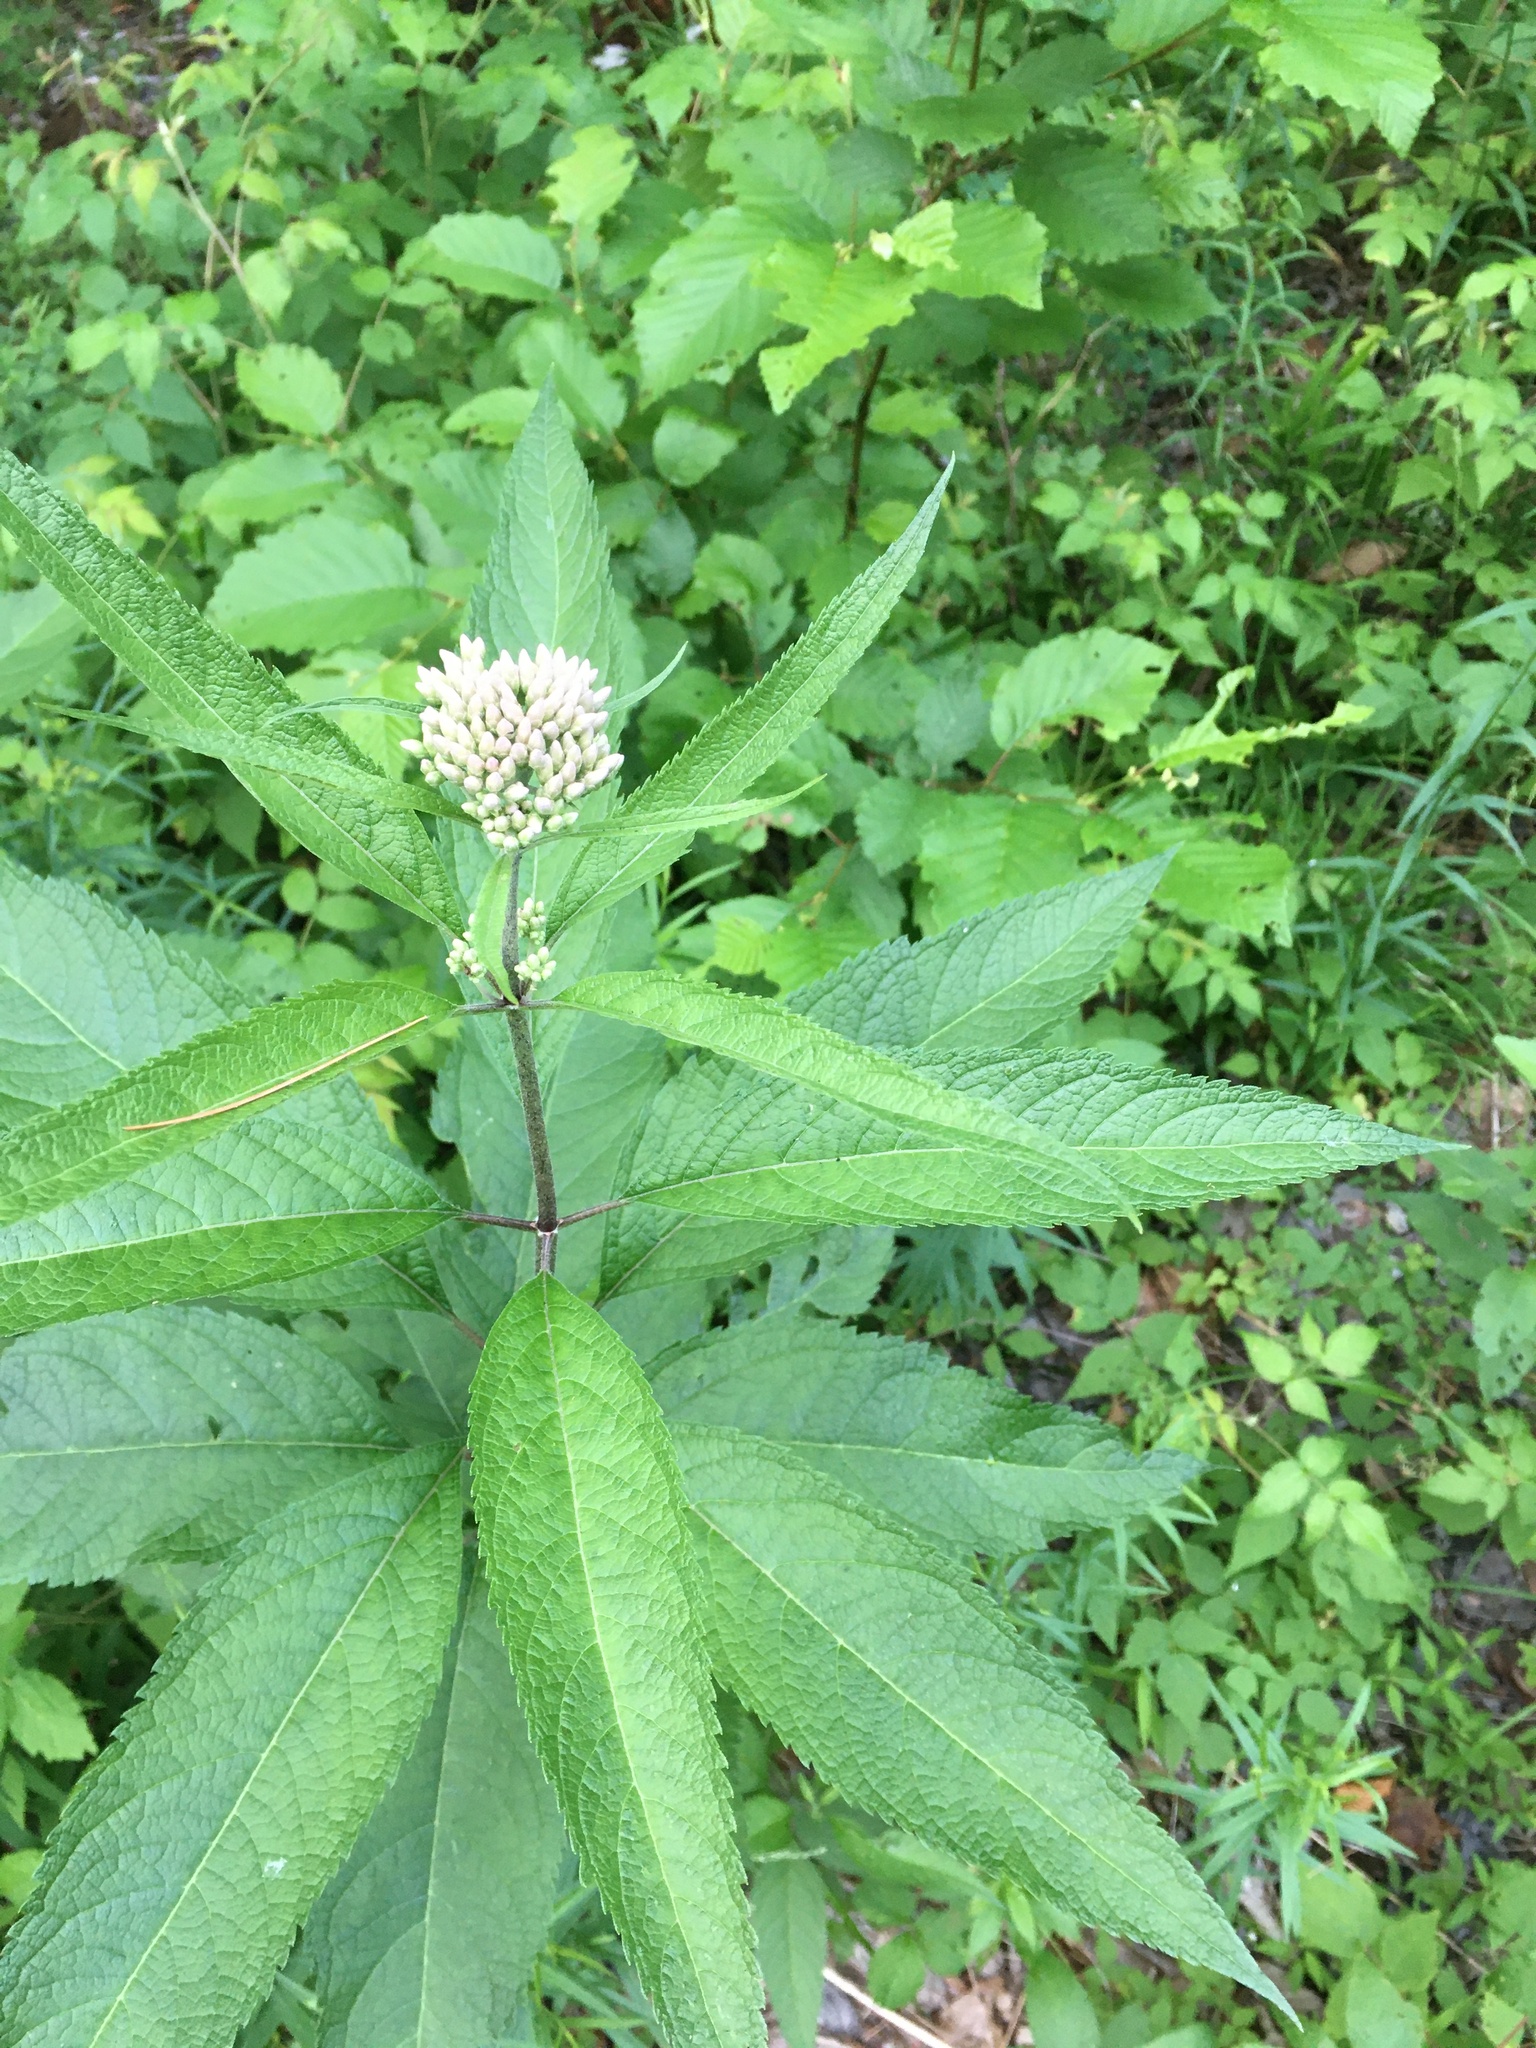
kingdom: Plantae
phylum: Tracheophyta
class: Magnoliopsida
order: Asterales
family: Asteraceae
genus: Eutrochium
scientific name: Eutrochium fistulosum
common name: Trumpetweed
